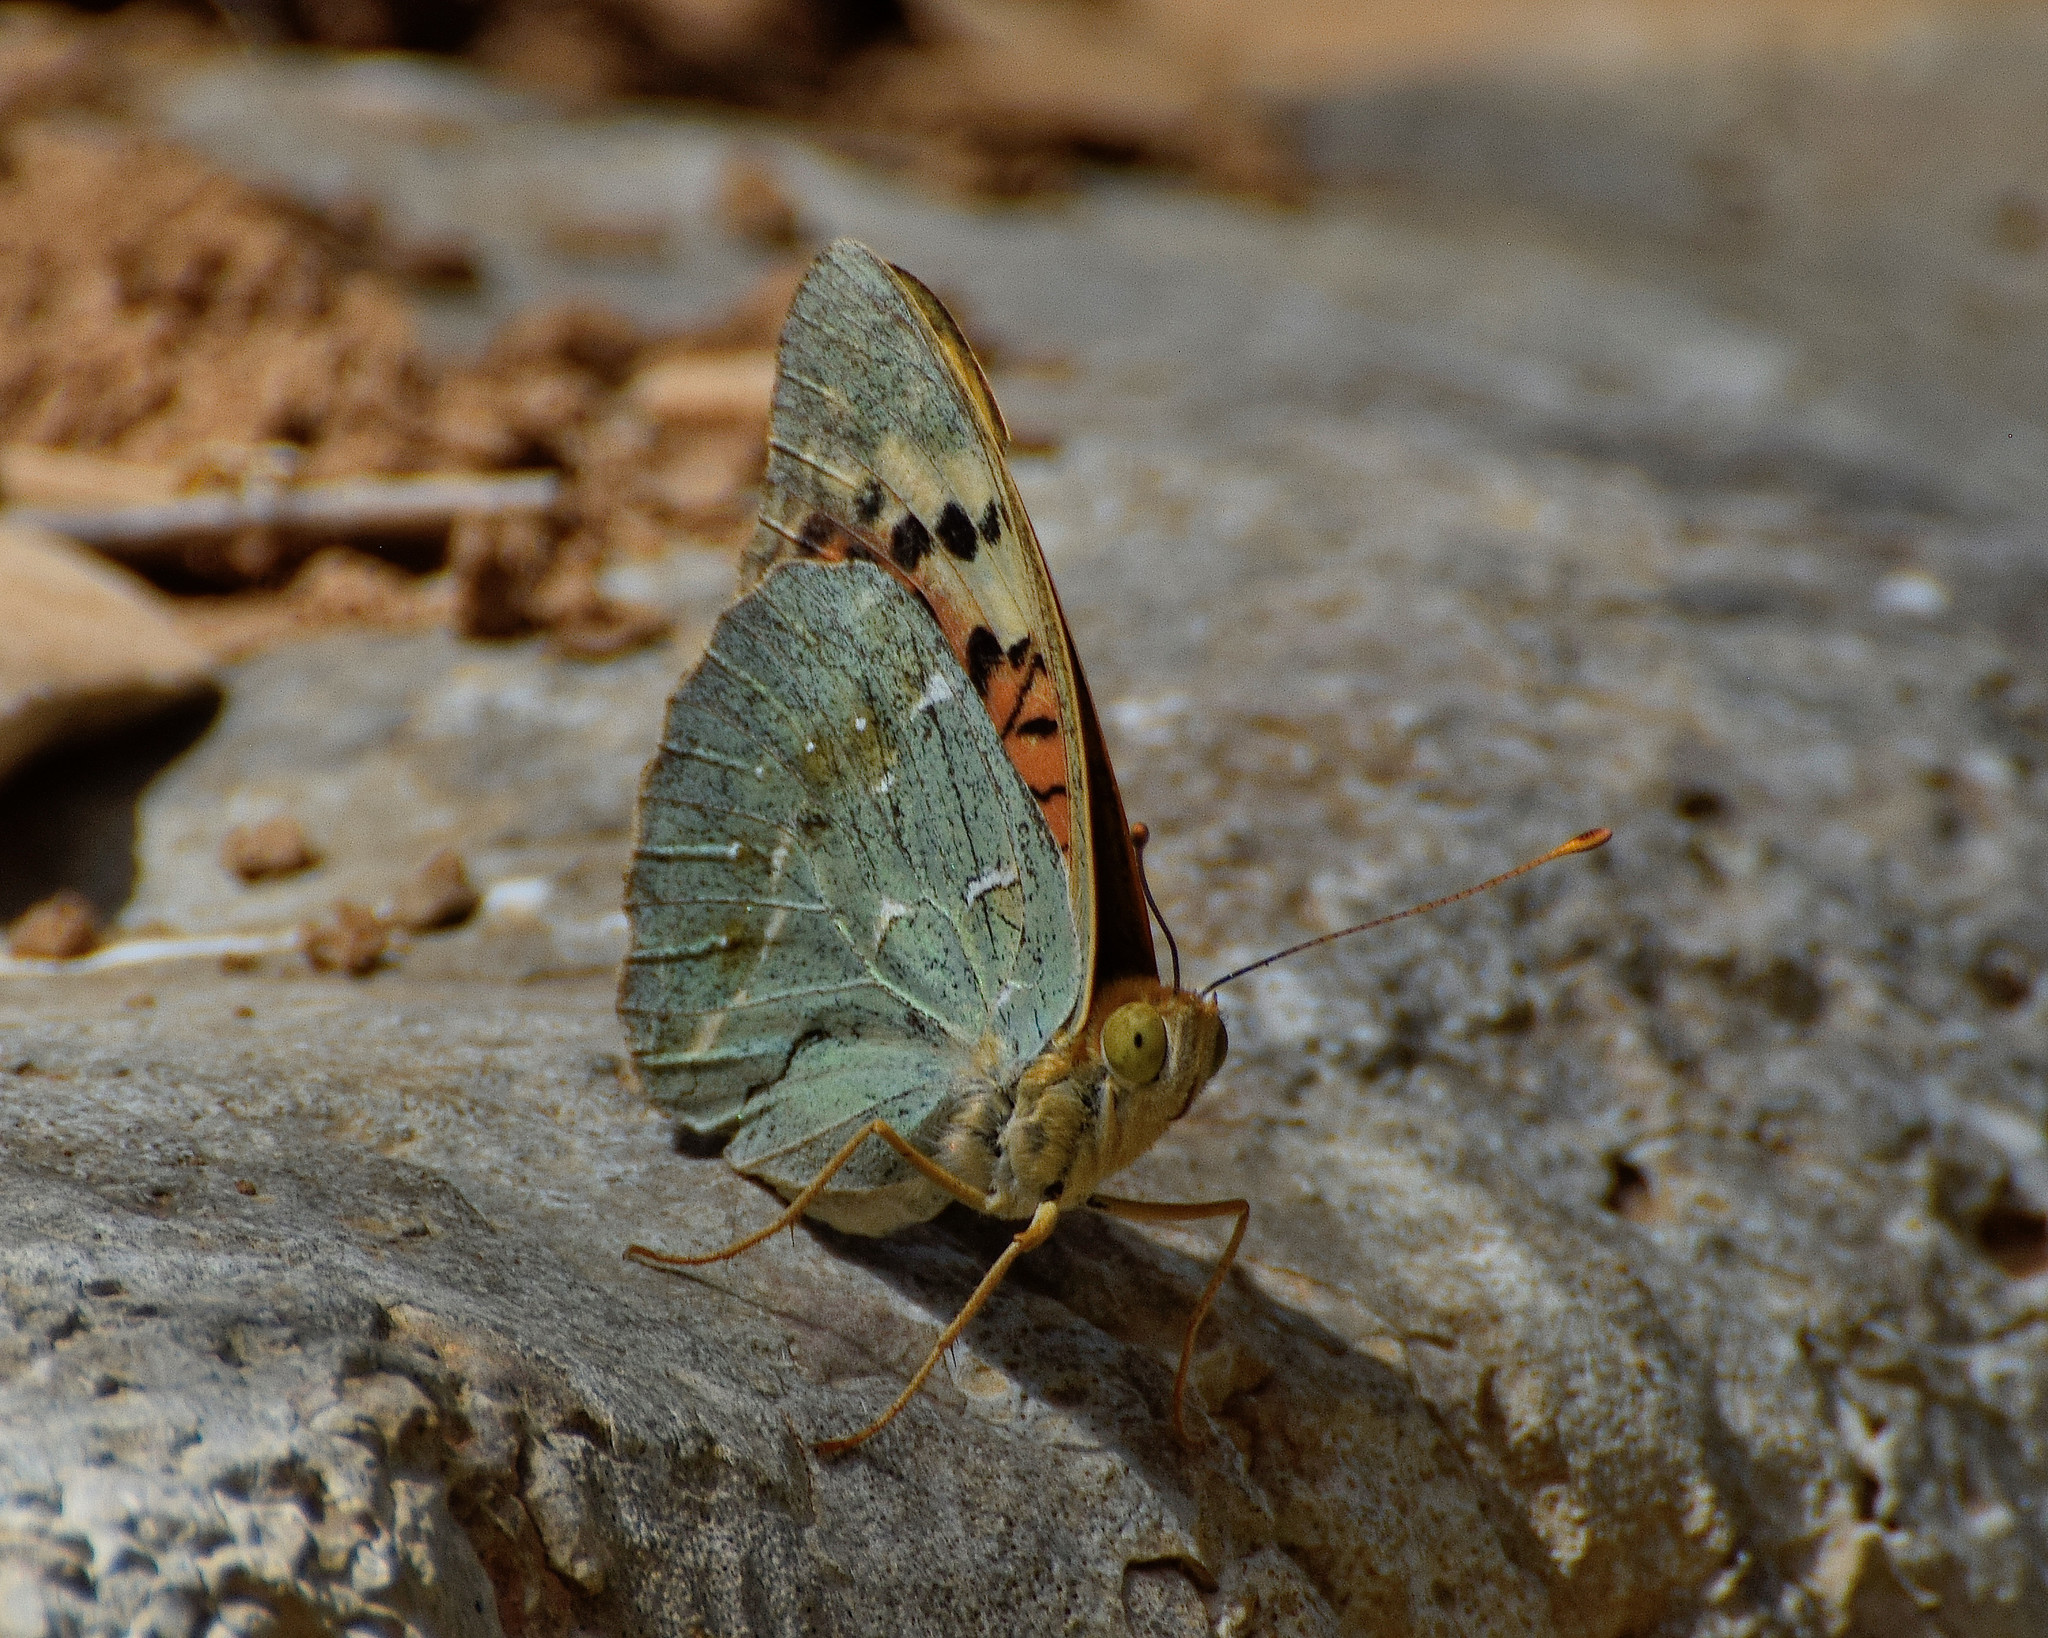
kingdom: Animalia
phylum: Arthropoda
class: Insecta
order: Lepidoptera
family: Nymphalidae
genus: Damora
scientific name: Damora pandora
